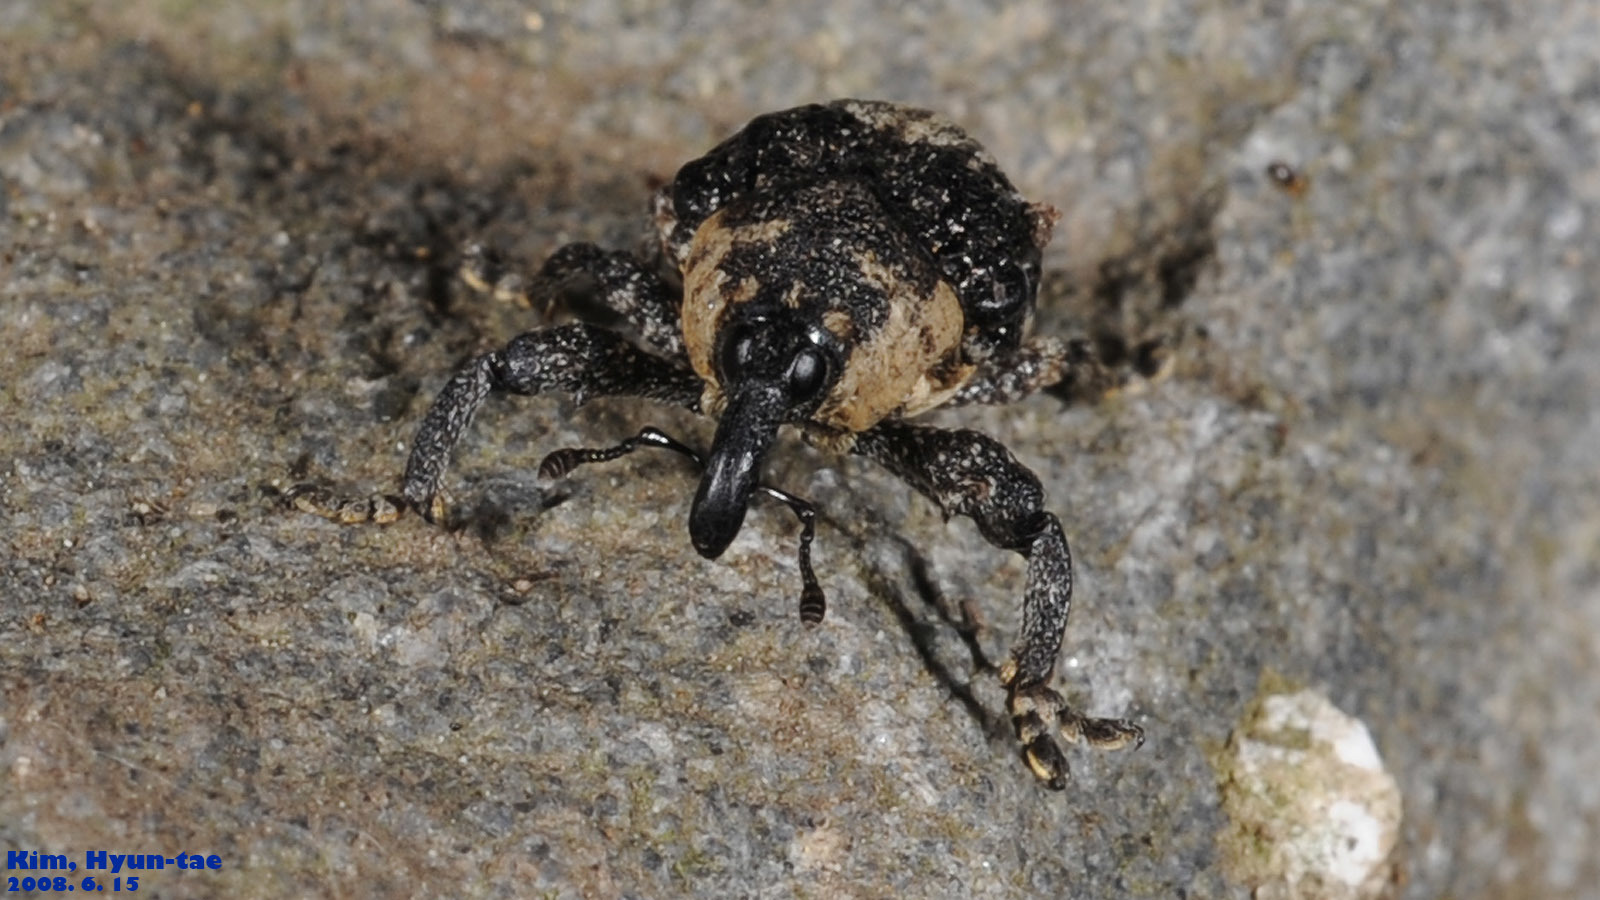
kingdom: Animalia
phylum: Arthropoda
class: Insecta
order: Coleoptera
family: Curculionidae
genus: Alcides
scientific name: Alcides trifidus
